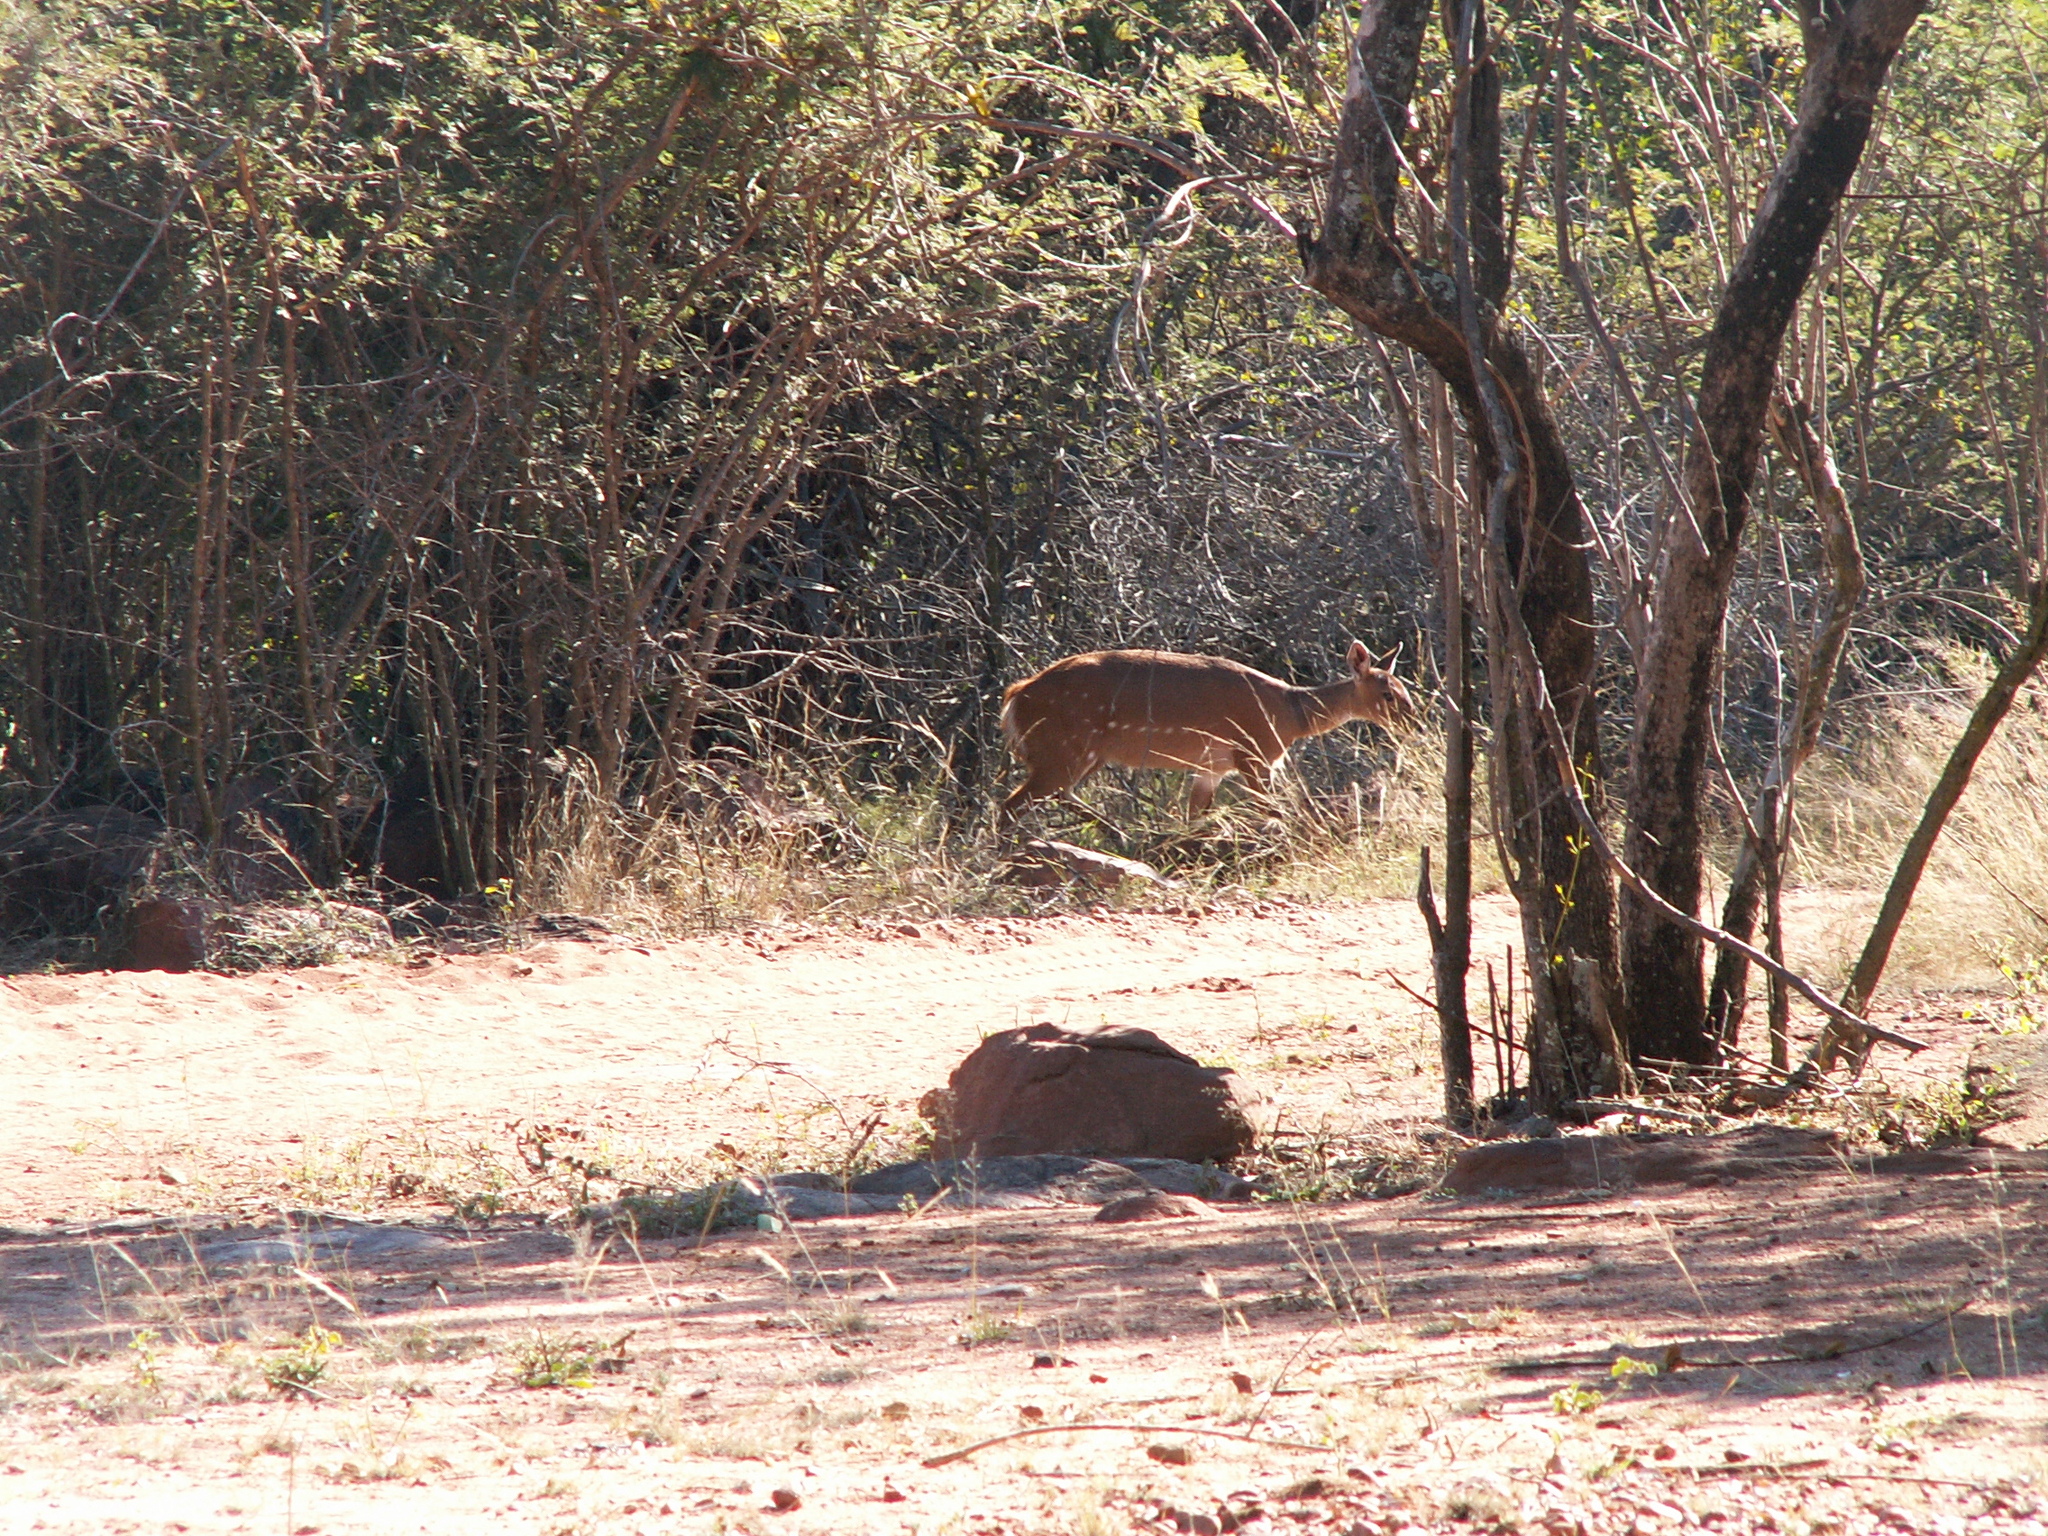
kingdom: Animalia
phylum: Chordata
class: Mammalia
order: Artiodactyla
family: Bovidae
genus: Tragelaphus
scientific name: Tragelaphus scriptus
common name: Bushbuck
